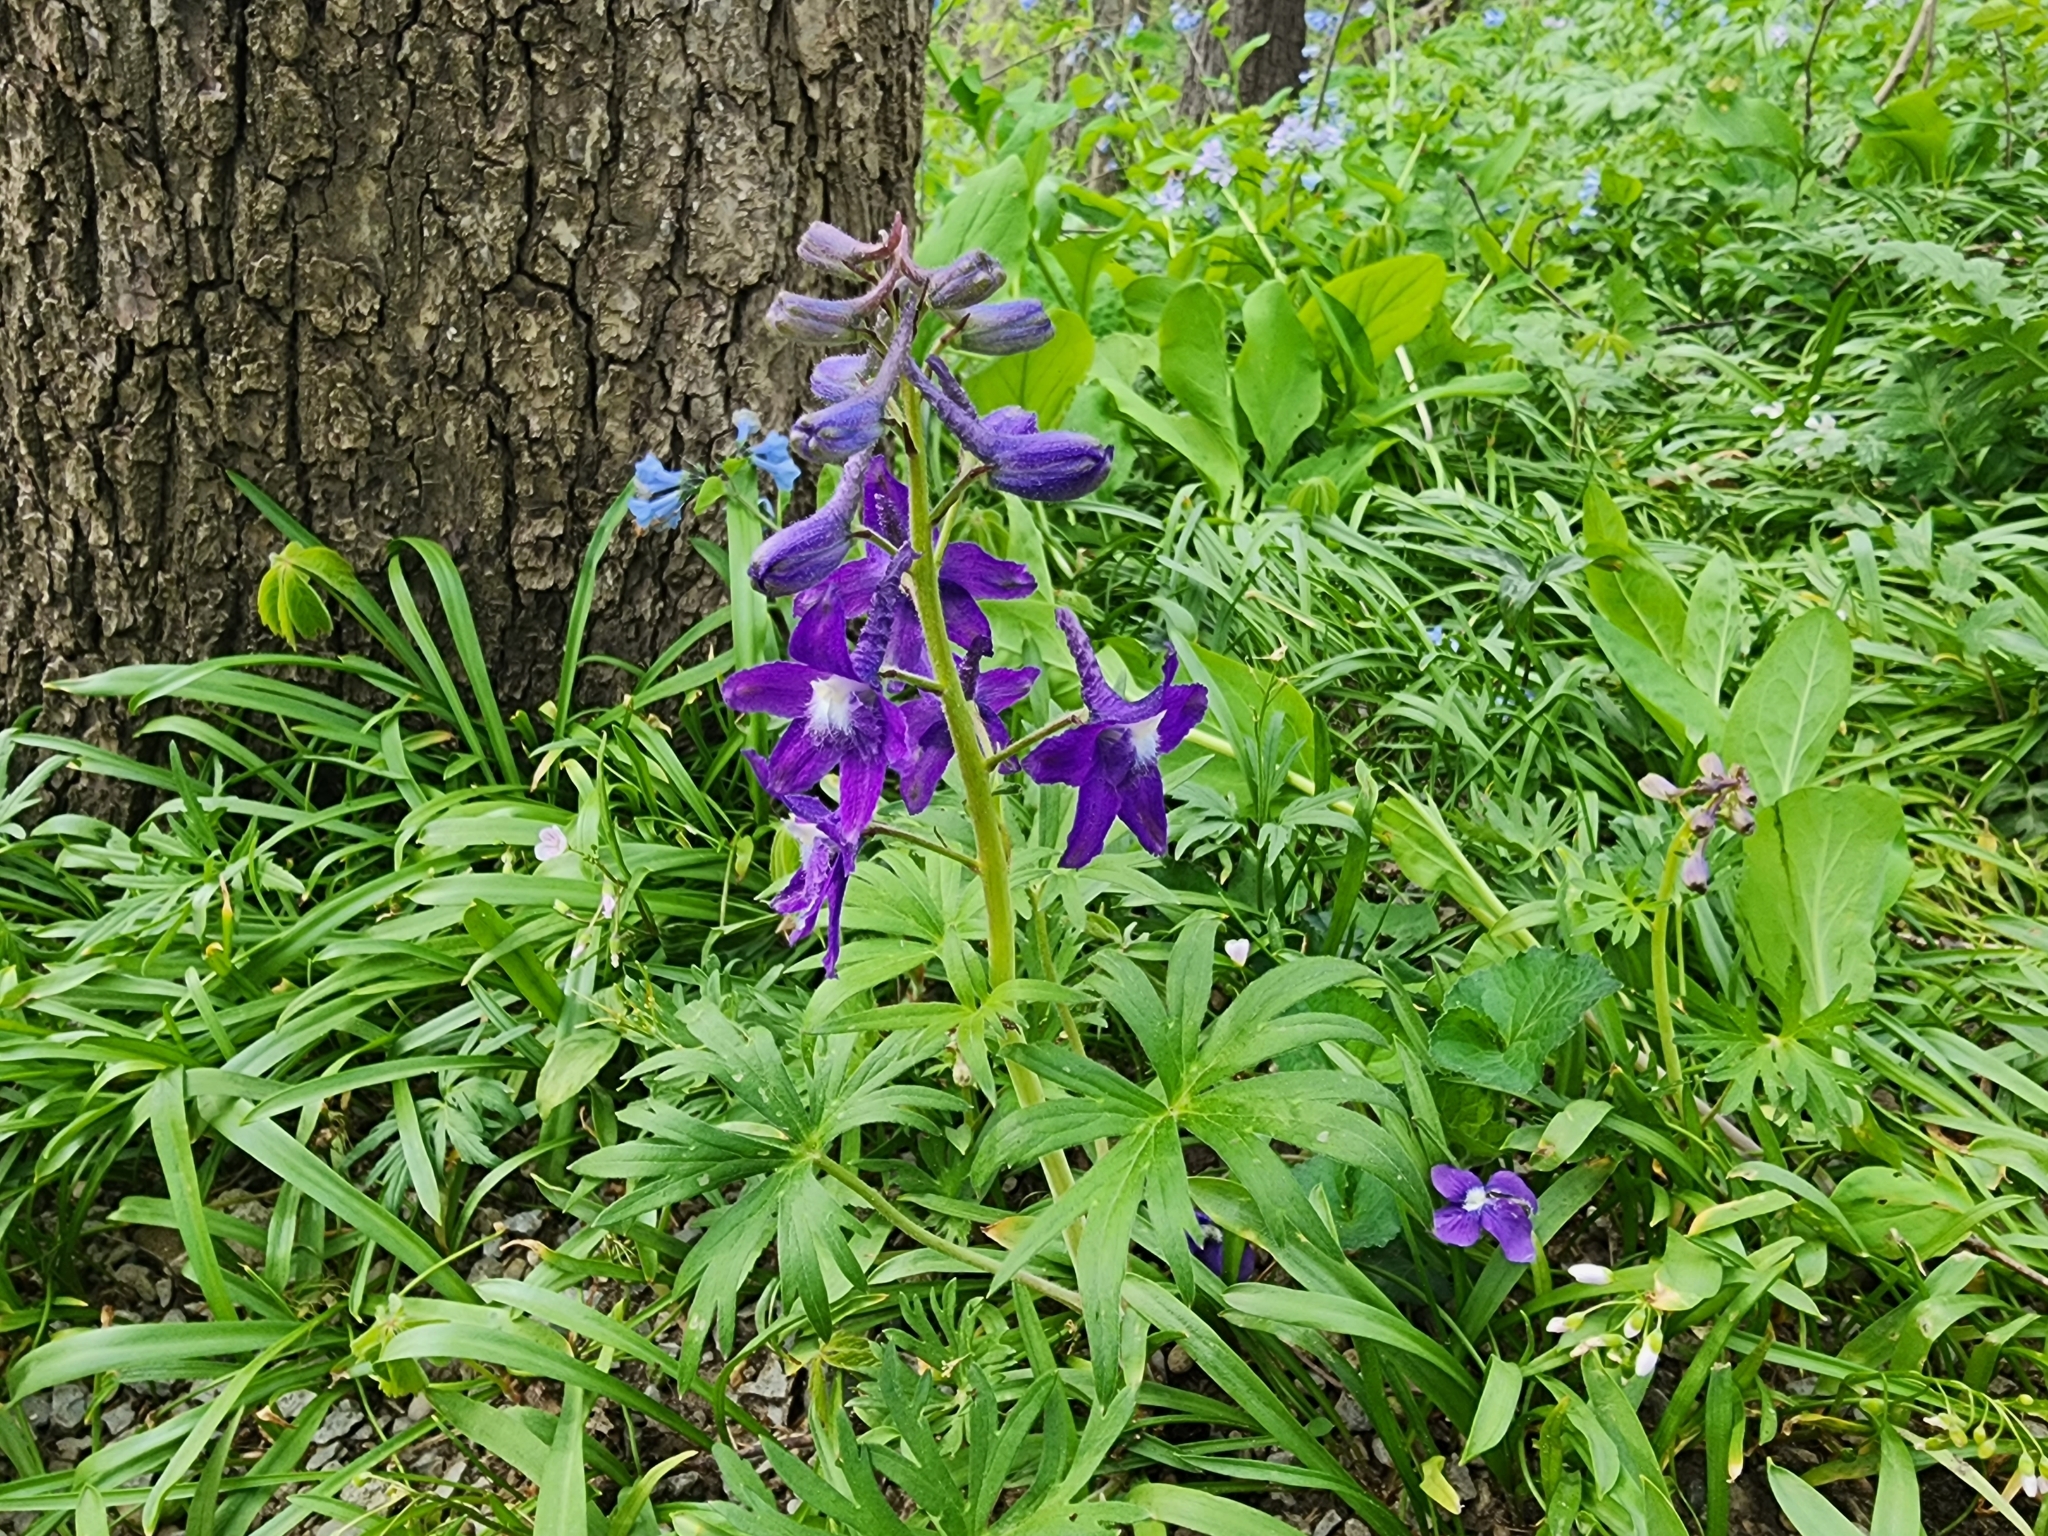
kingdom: Plantae
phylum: Tracheophyta
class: Magnoliopsida
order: Ranunculales
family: Ranunculaceae
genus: Delphinium
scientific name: Delphinium tricorne
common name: Dwarf larkspur
